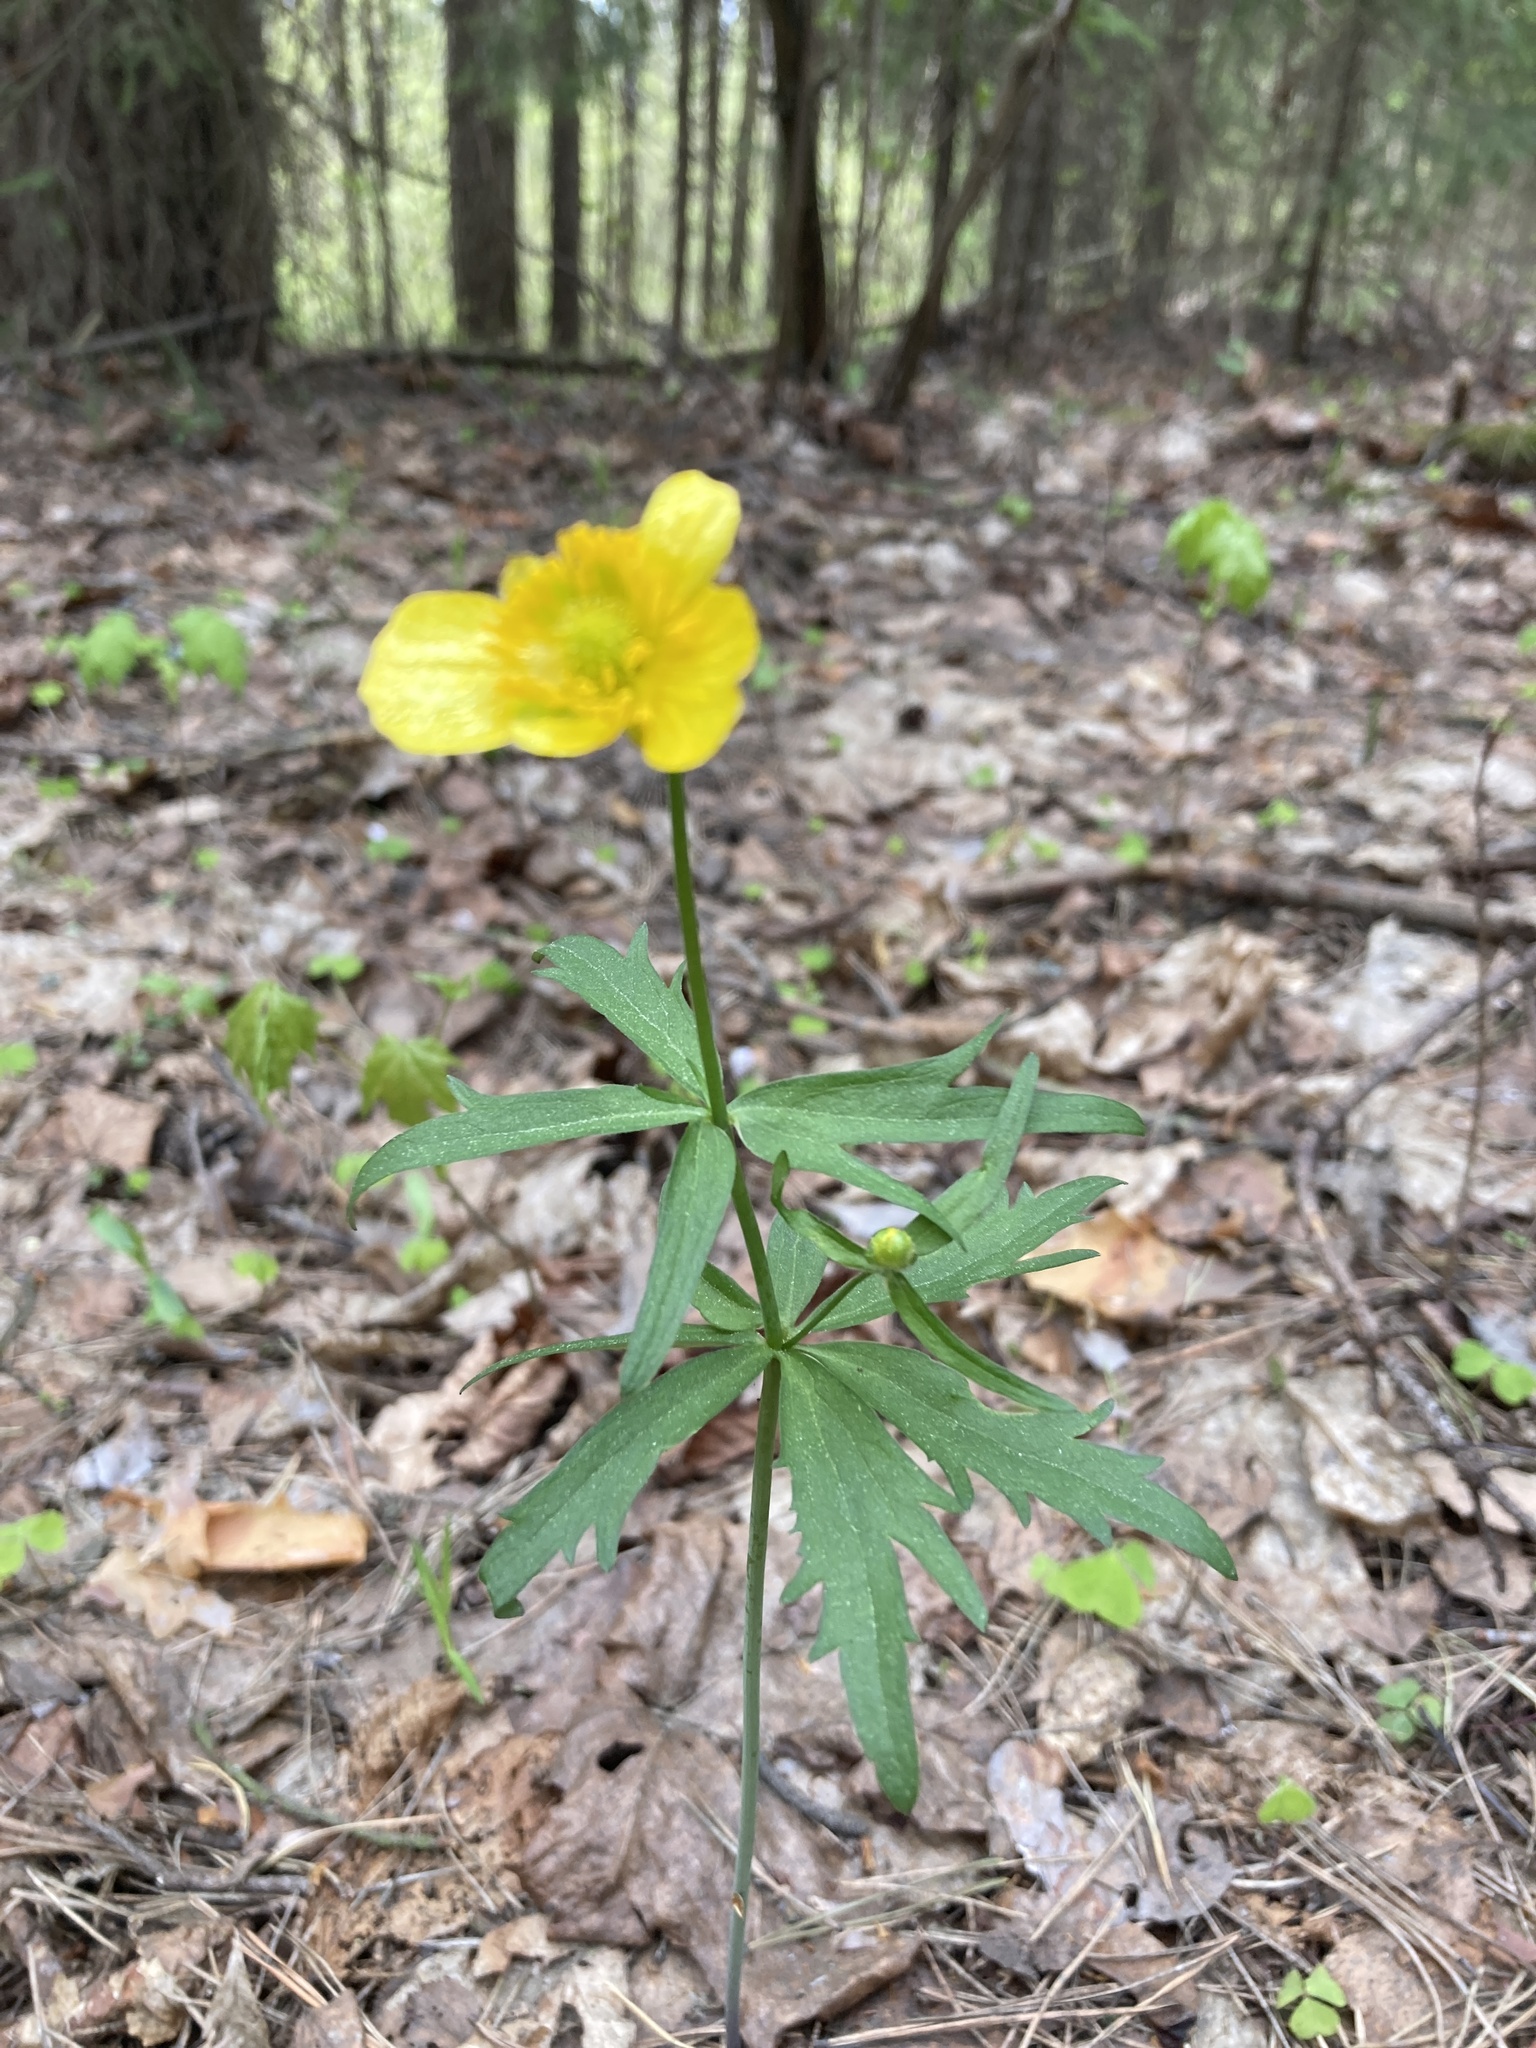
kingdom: Plantae
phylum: Tracheophyta
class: Magnoliopsida
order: Ranunculales
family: Ranunculaceae
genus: Ranunculus
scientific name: Ranunculus cassubicus
